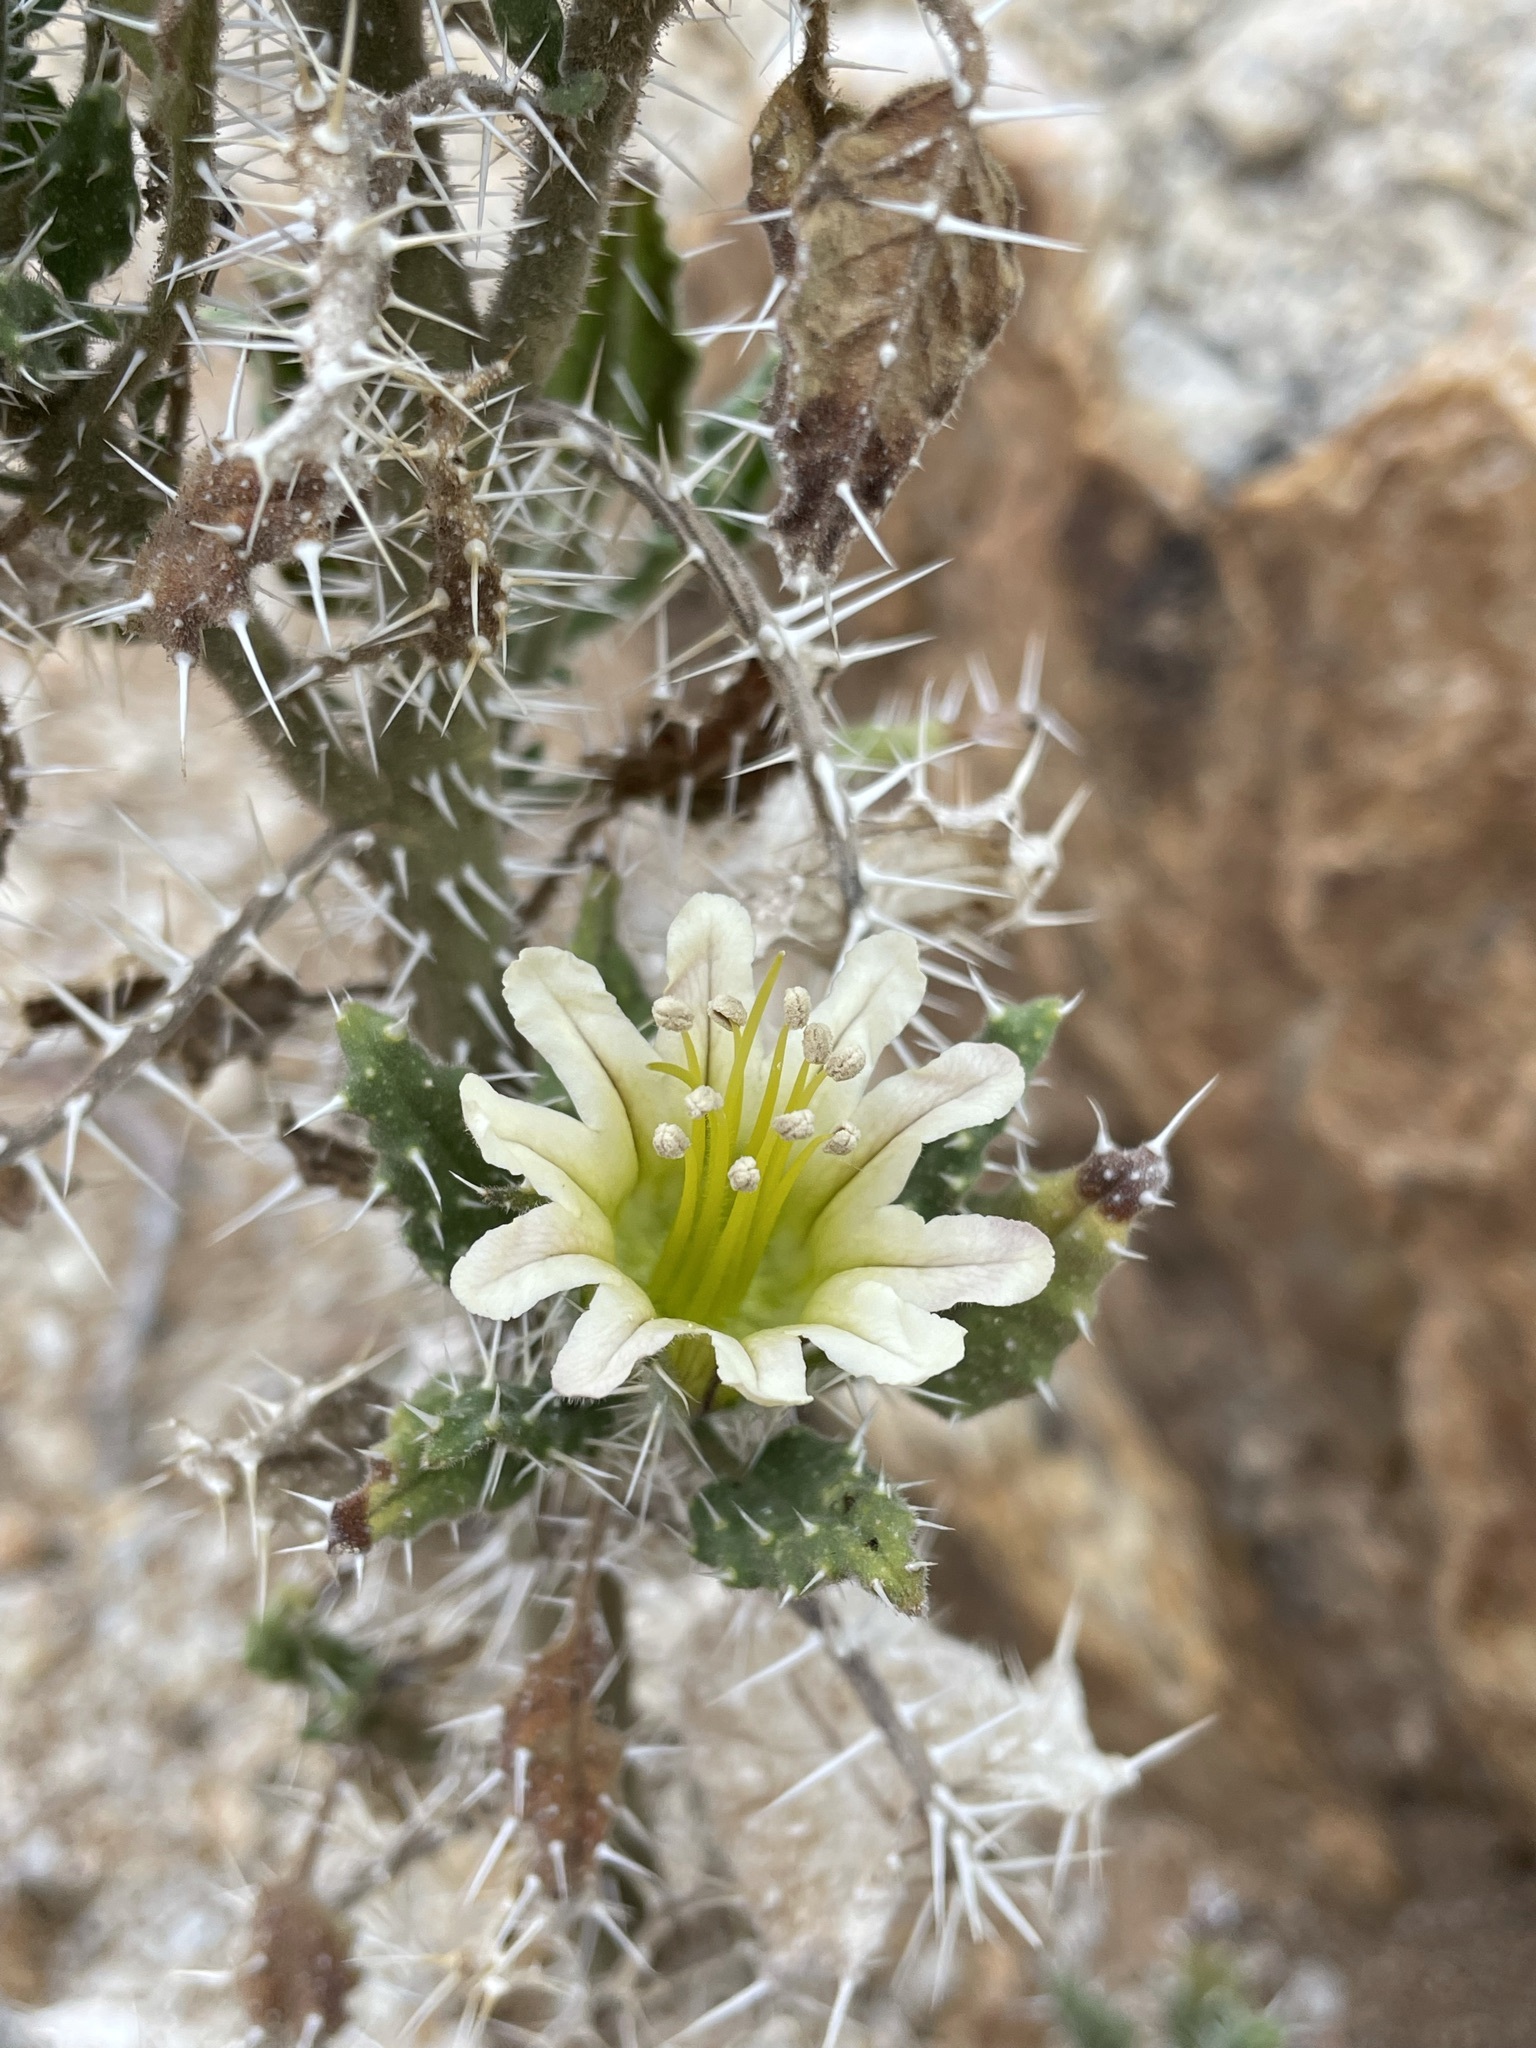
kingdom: Plantae
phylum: Tracheophyta
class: Magnoliopsida
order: Boraginales
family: Boraginaceae
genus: Codon
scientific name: Codon royenii
